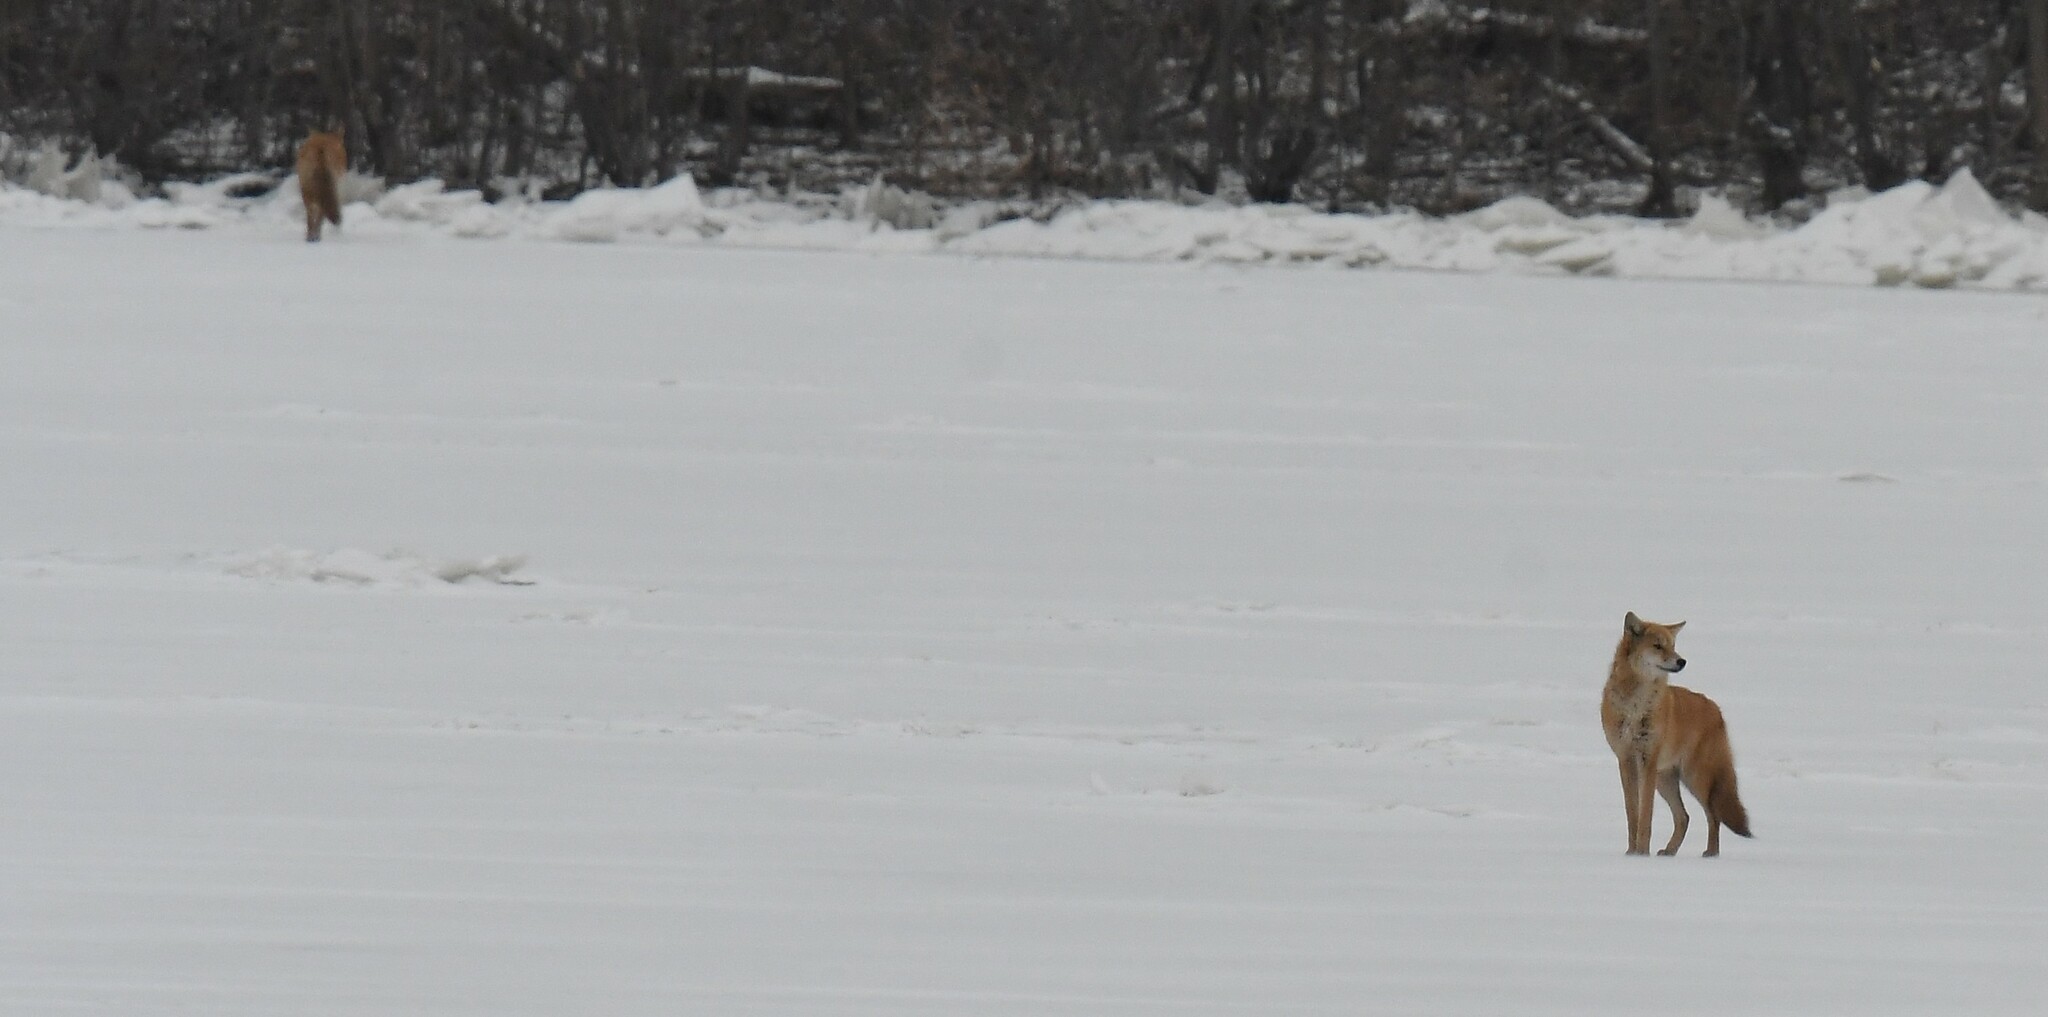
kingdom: Animalia
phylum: Chordata
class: Mammalia
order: Carnivora
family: Canidae
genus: Canis
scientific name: Canis latrans
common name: Coyote
